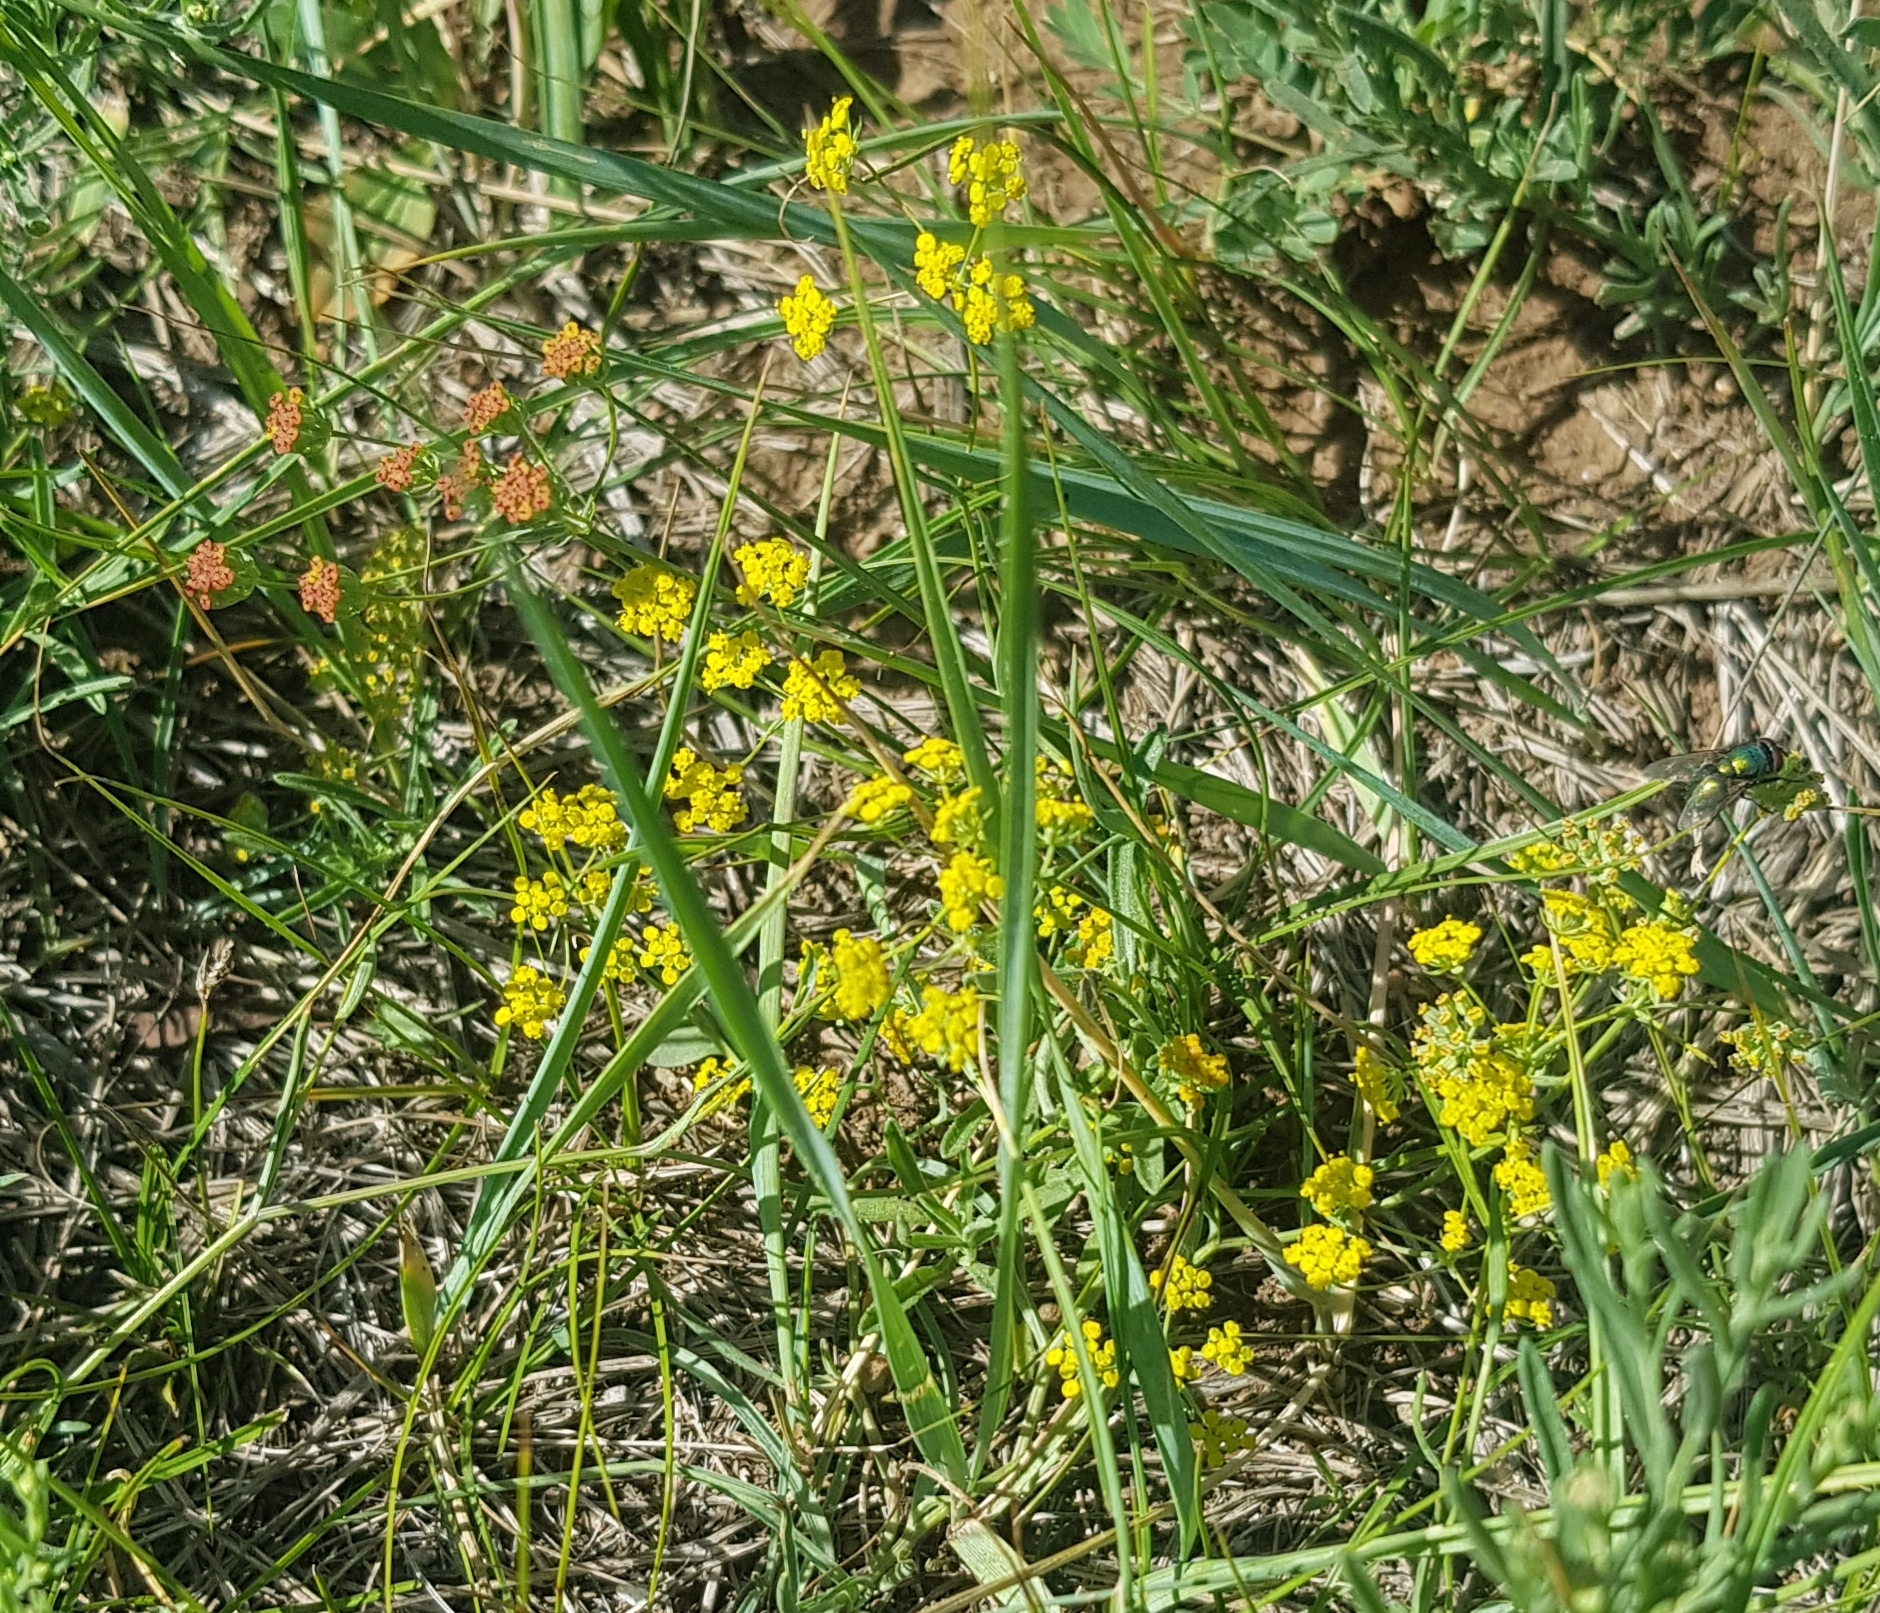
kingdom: Plantae
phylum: Tracheophyta
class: Magnoliopsida
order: Apiales
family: Apiaceae
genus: Bupleurum
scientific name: Bupleurum scorzonerifolium
